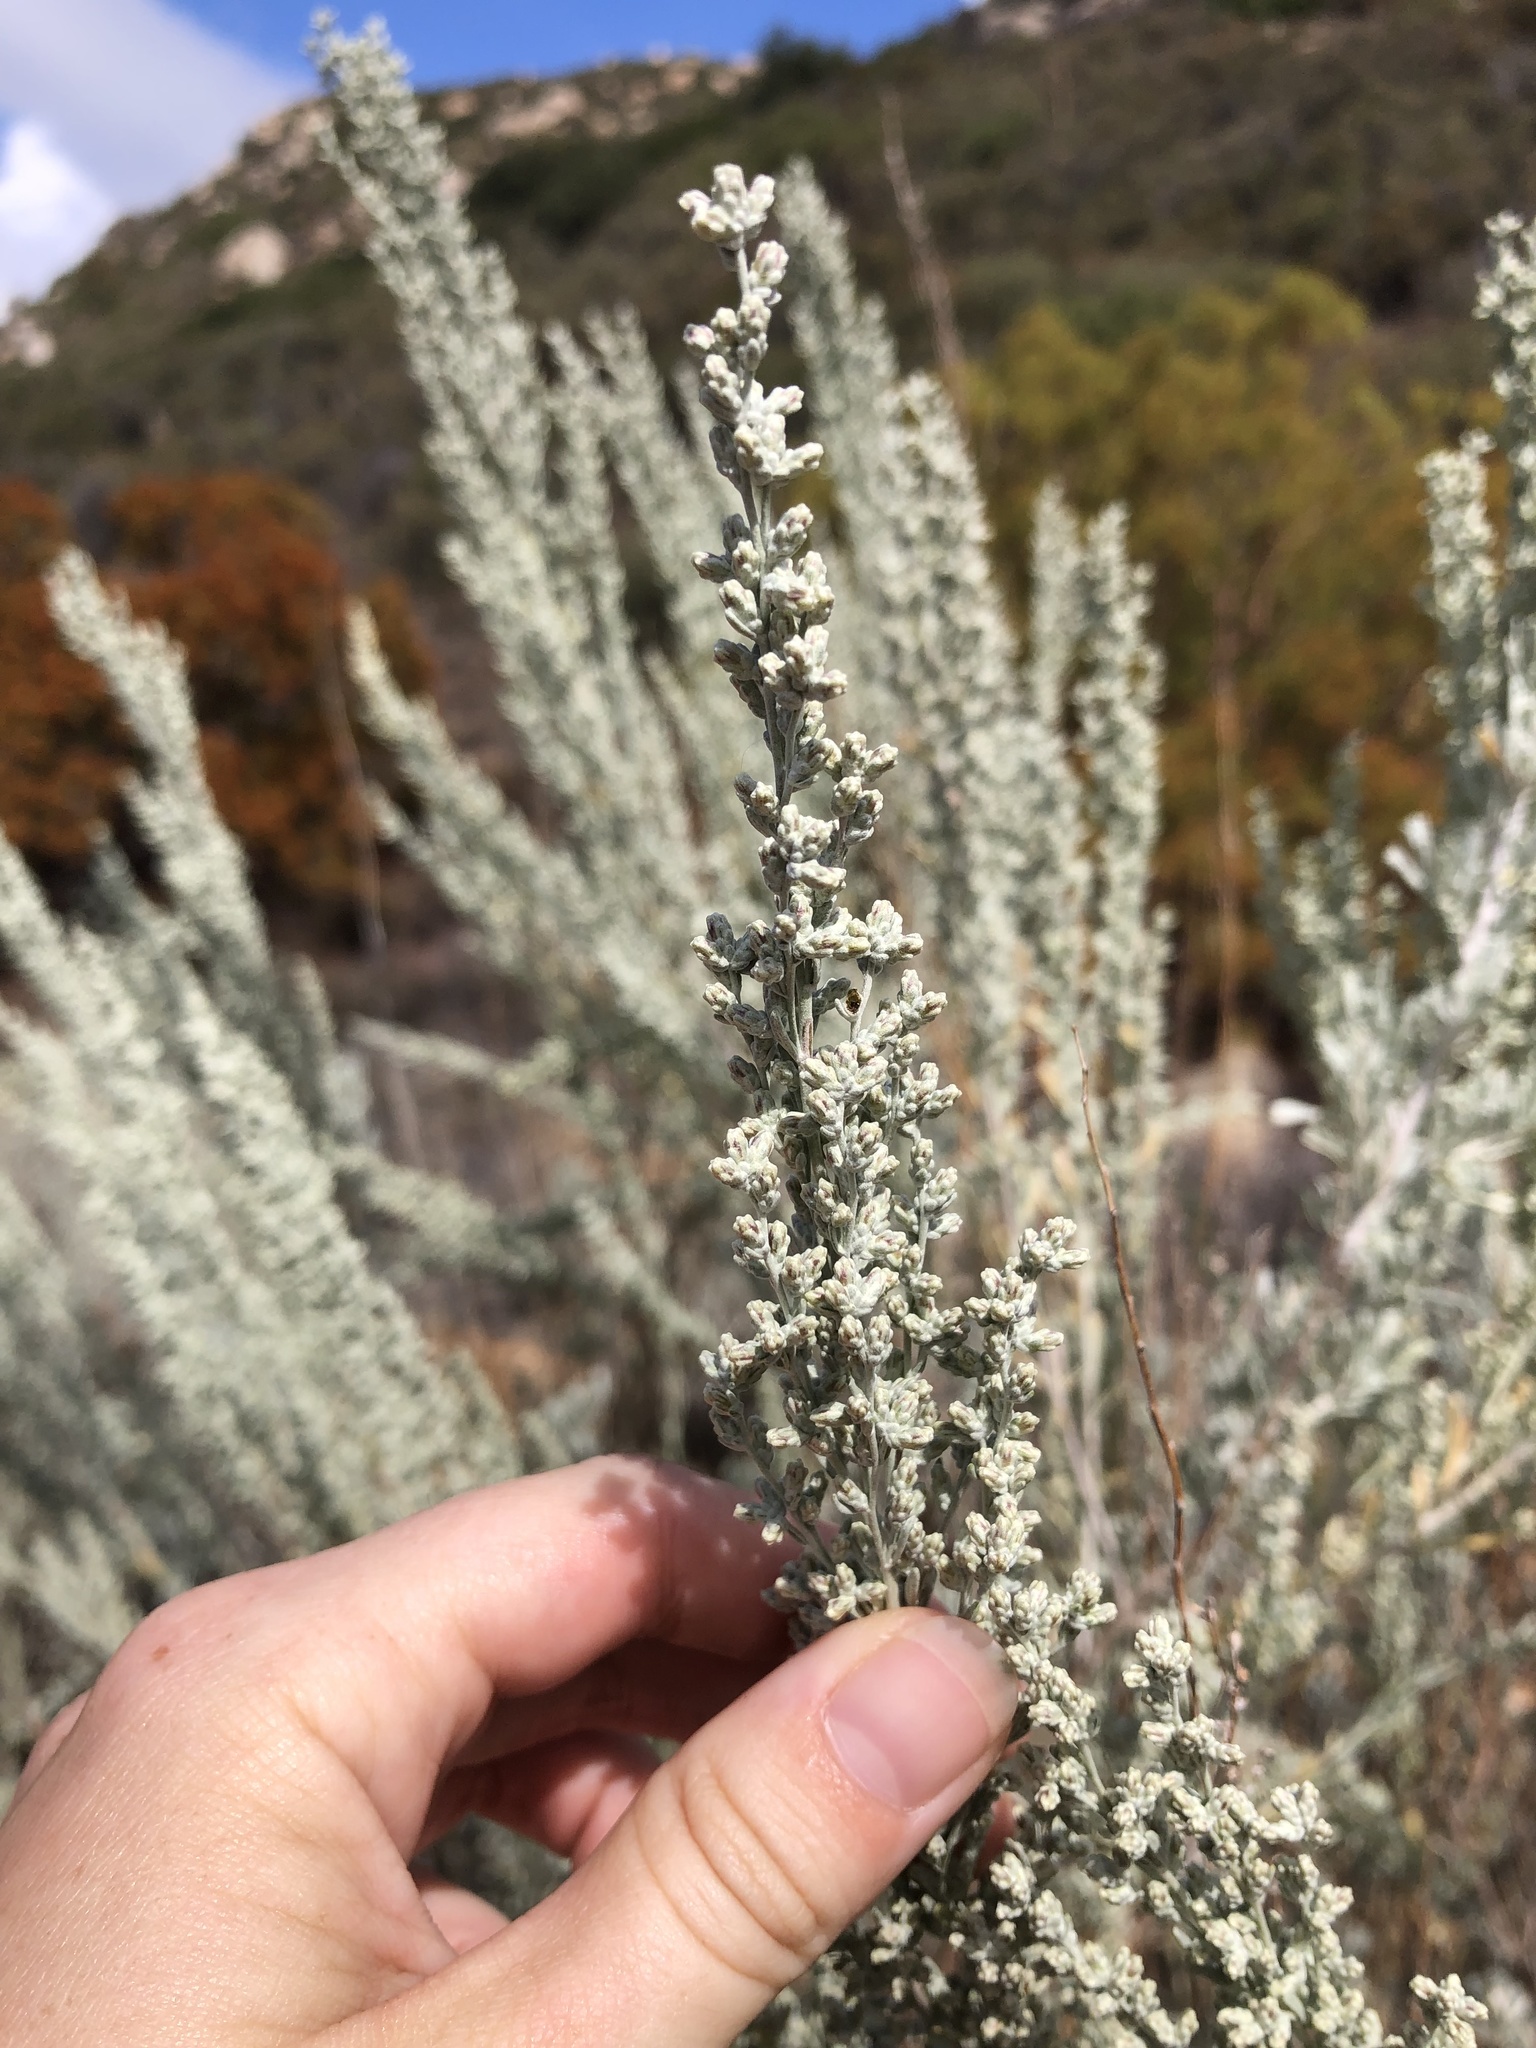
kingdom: Plantae
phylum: Tracheophyta
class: Magnoliopsida
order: Asterales
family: Asteraceae
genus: Artemisia
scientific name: Artemisia tridentata
